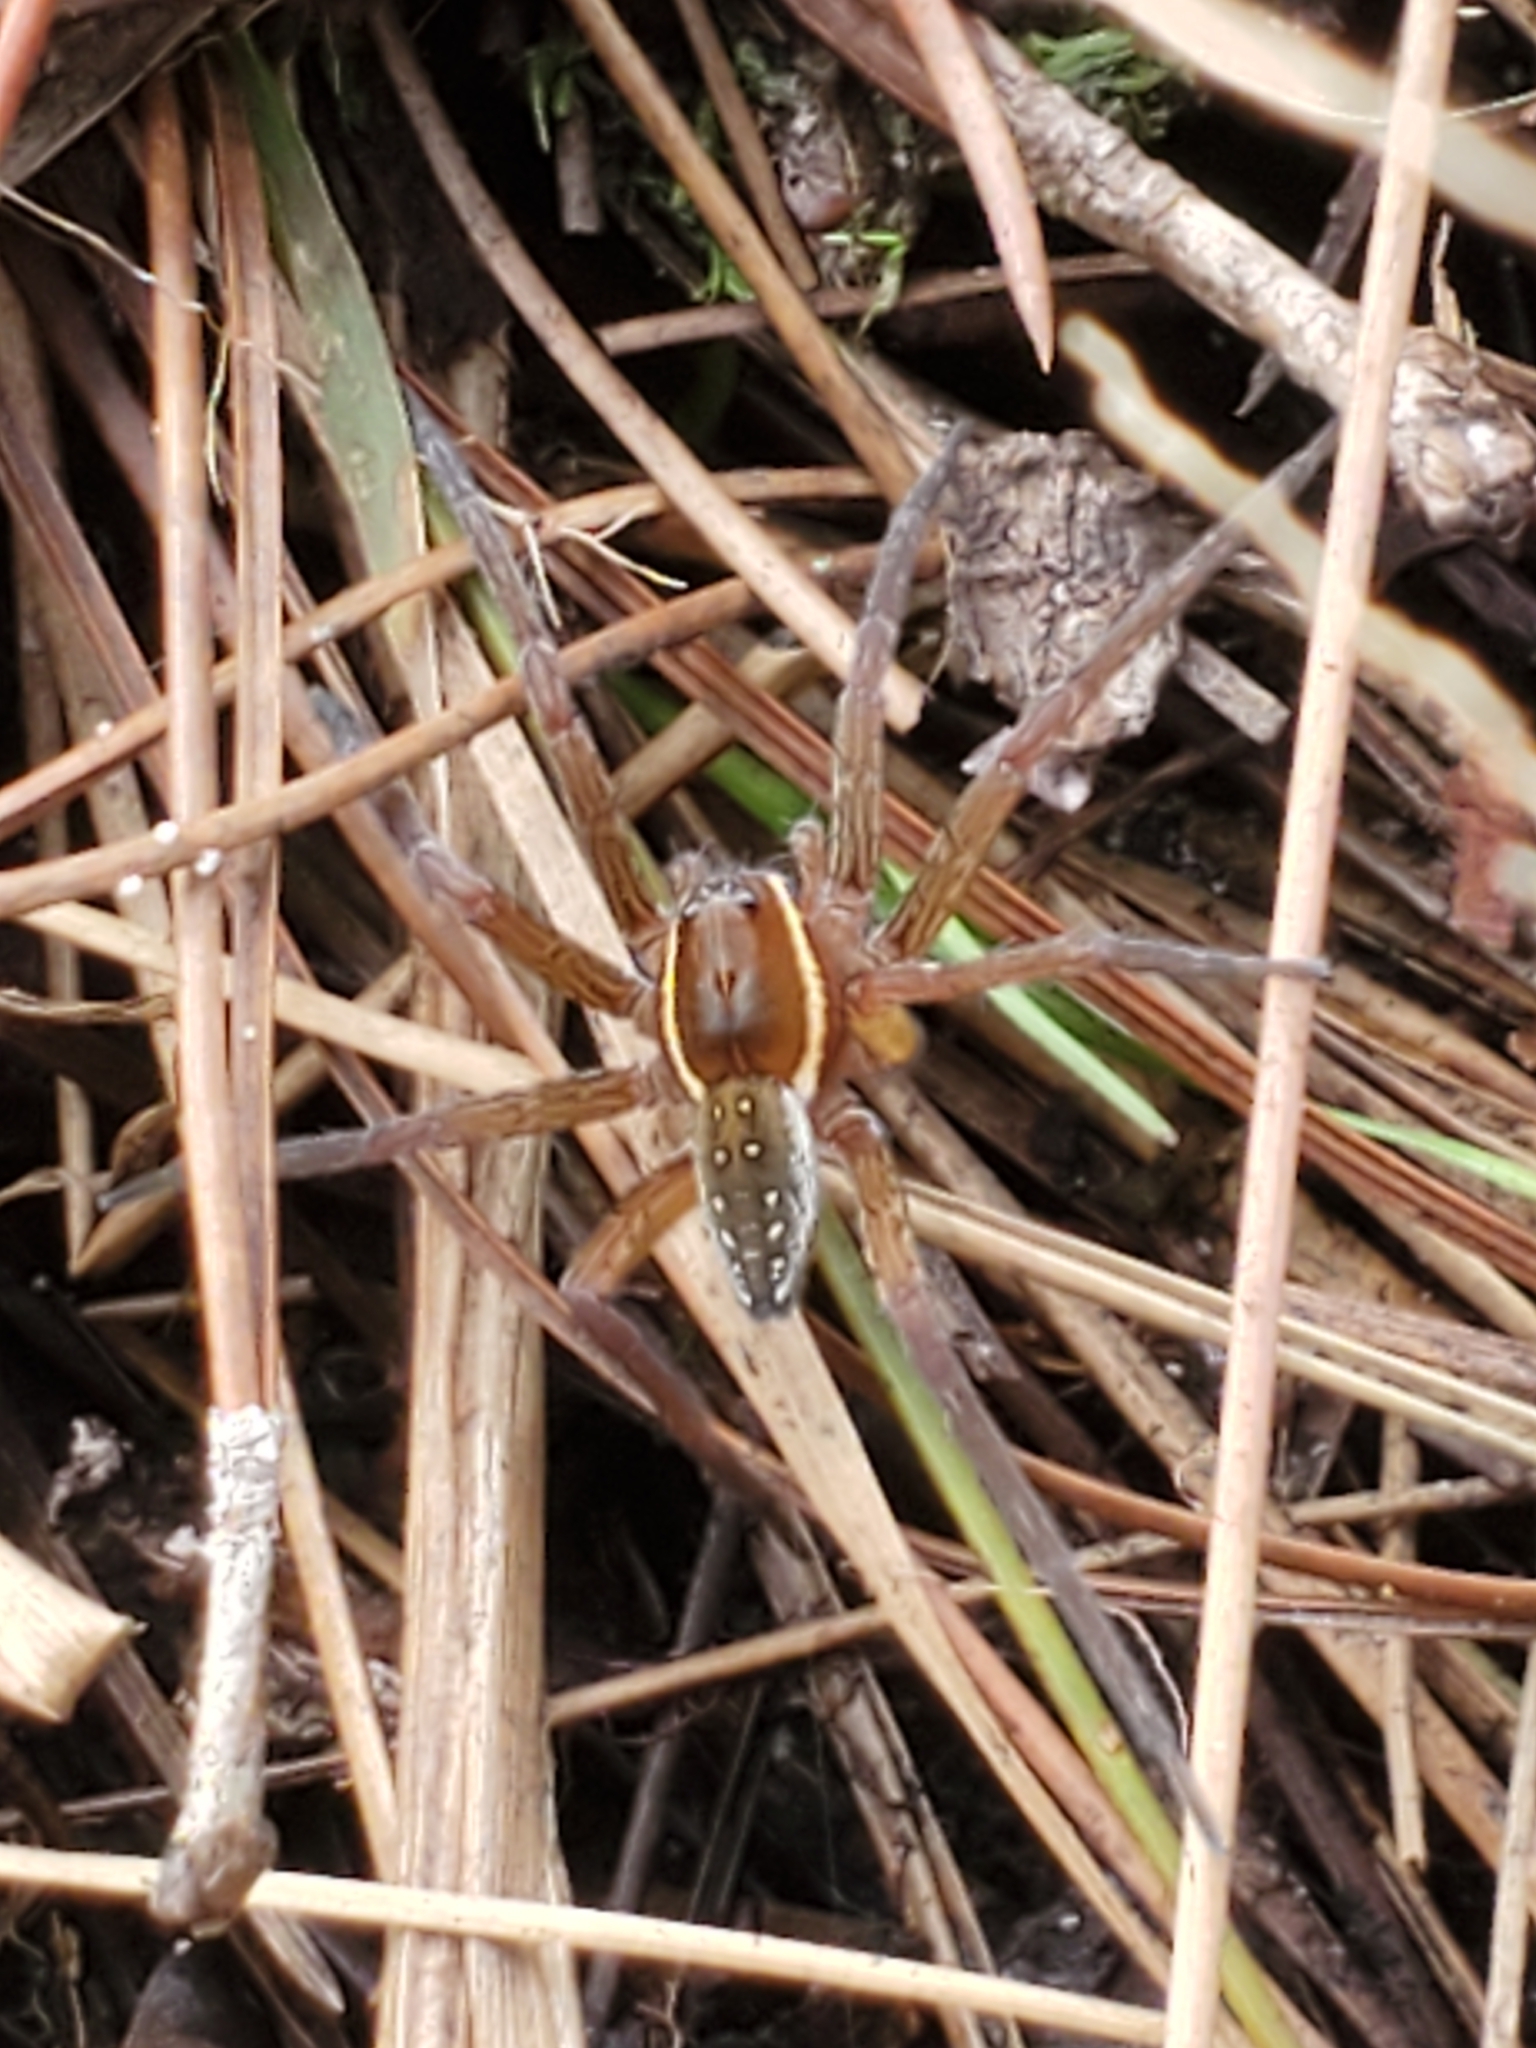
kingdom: Animalia
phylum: Arthropoda
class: Arachnida
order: Araneae
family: Pisauridae
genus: Dolomedes
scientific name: Dolomedes triton
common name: Six-spotted fishing spider
